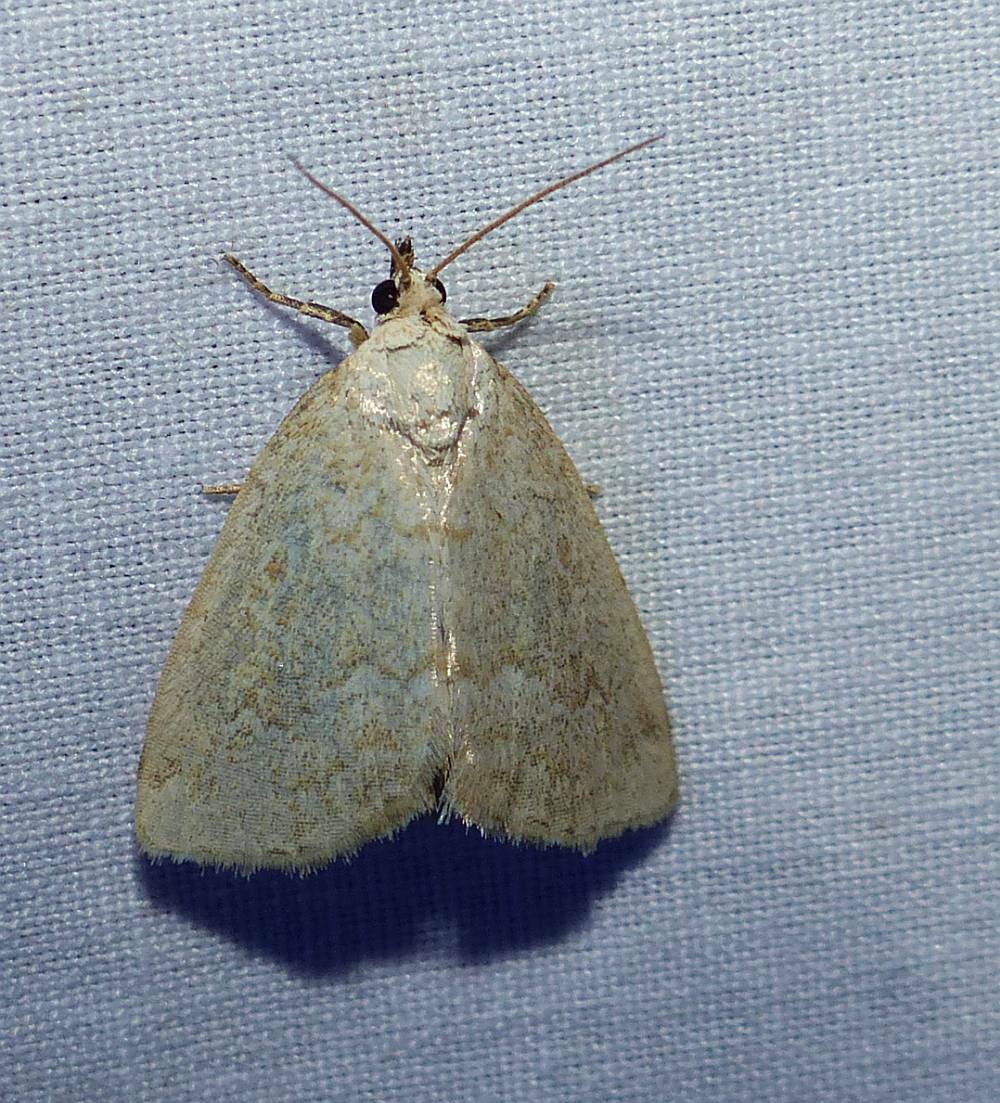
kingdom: Animalia
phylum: Arthropoda
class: Insecta
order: Lepidoptera
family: Noctuidae
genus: Protodeltote
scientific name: Protodeltote albidula
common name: Pale glyph
